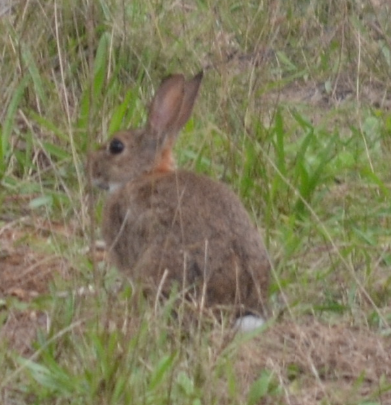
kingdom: Animalia
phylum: Chordata
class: Mammalia
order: Lagomorpha
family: Leporidae
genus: Oryctolagus
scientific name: Oryctolagus cuniculus
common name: European rabbit
